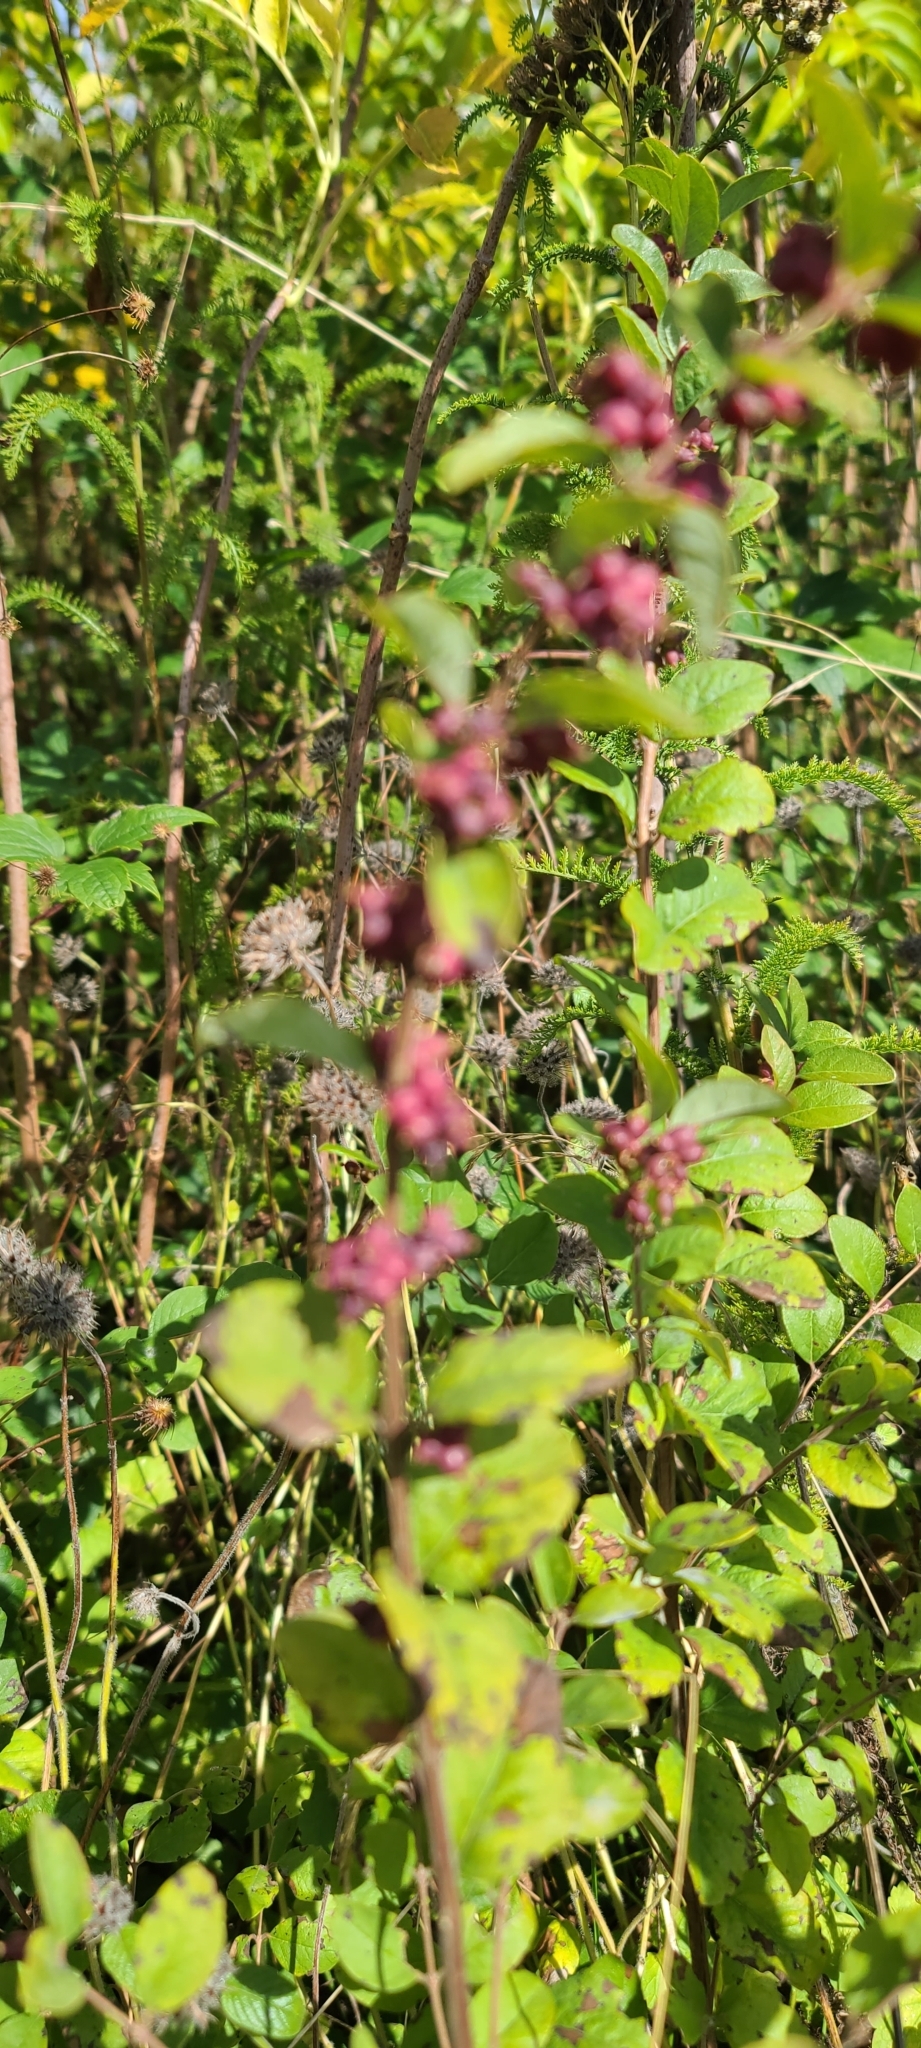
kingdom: Plantae
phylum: Tracheophyta
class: Magnoliopsida
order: Dipsacales
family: Caprifoliaceae
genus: Symphoricarpos
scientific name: Symphoricarpos orbiculatus
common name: Coralberry
